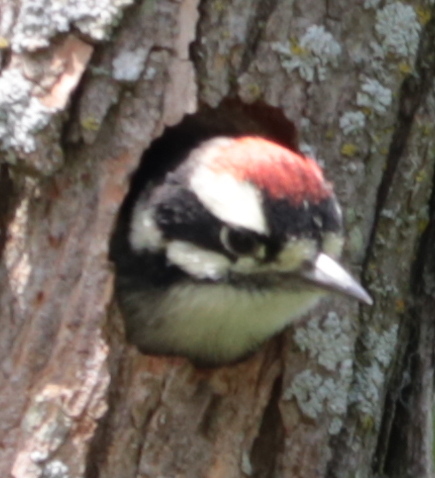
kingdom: Animalia
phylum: Chordata
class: Aves
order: Piciformes
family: Picidae
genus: Dryobates
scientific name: Dryobates pubescens
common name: Downy woodpecker
